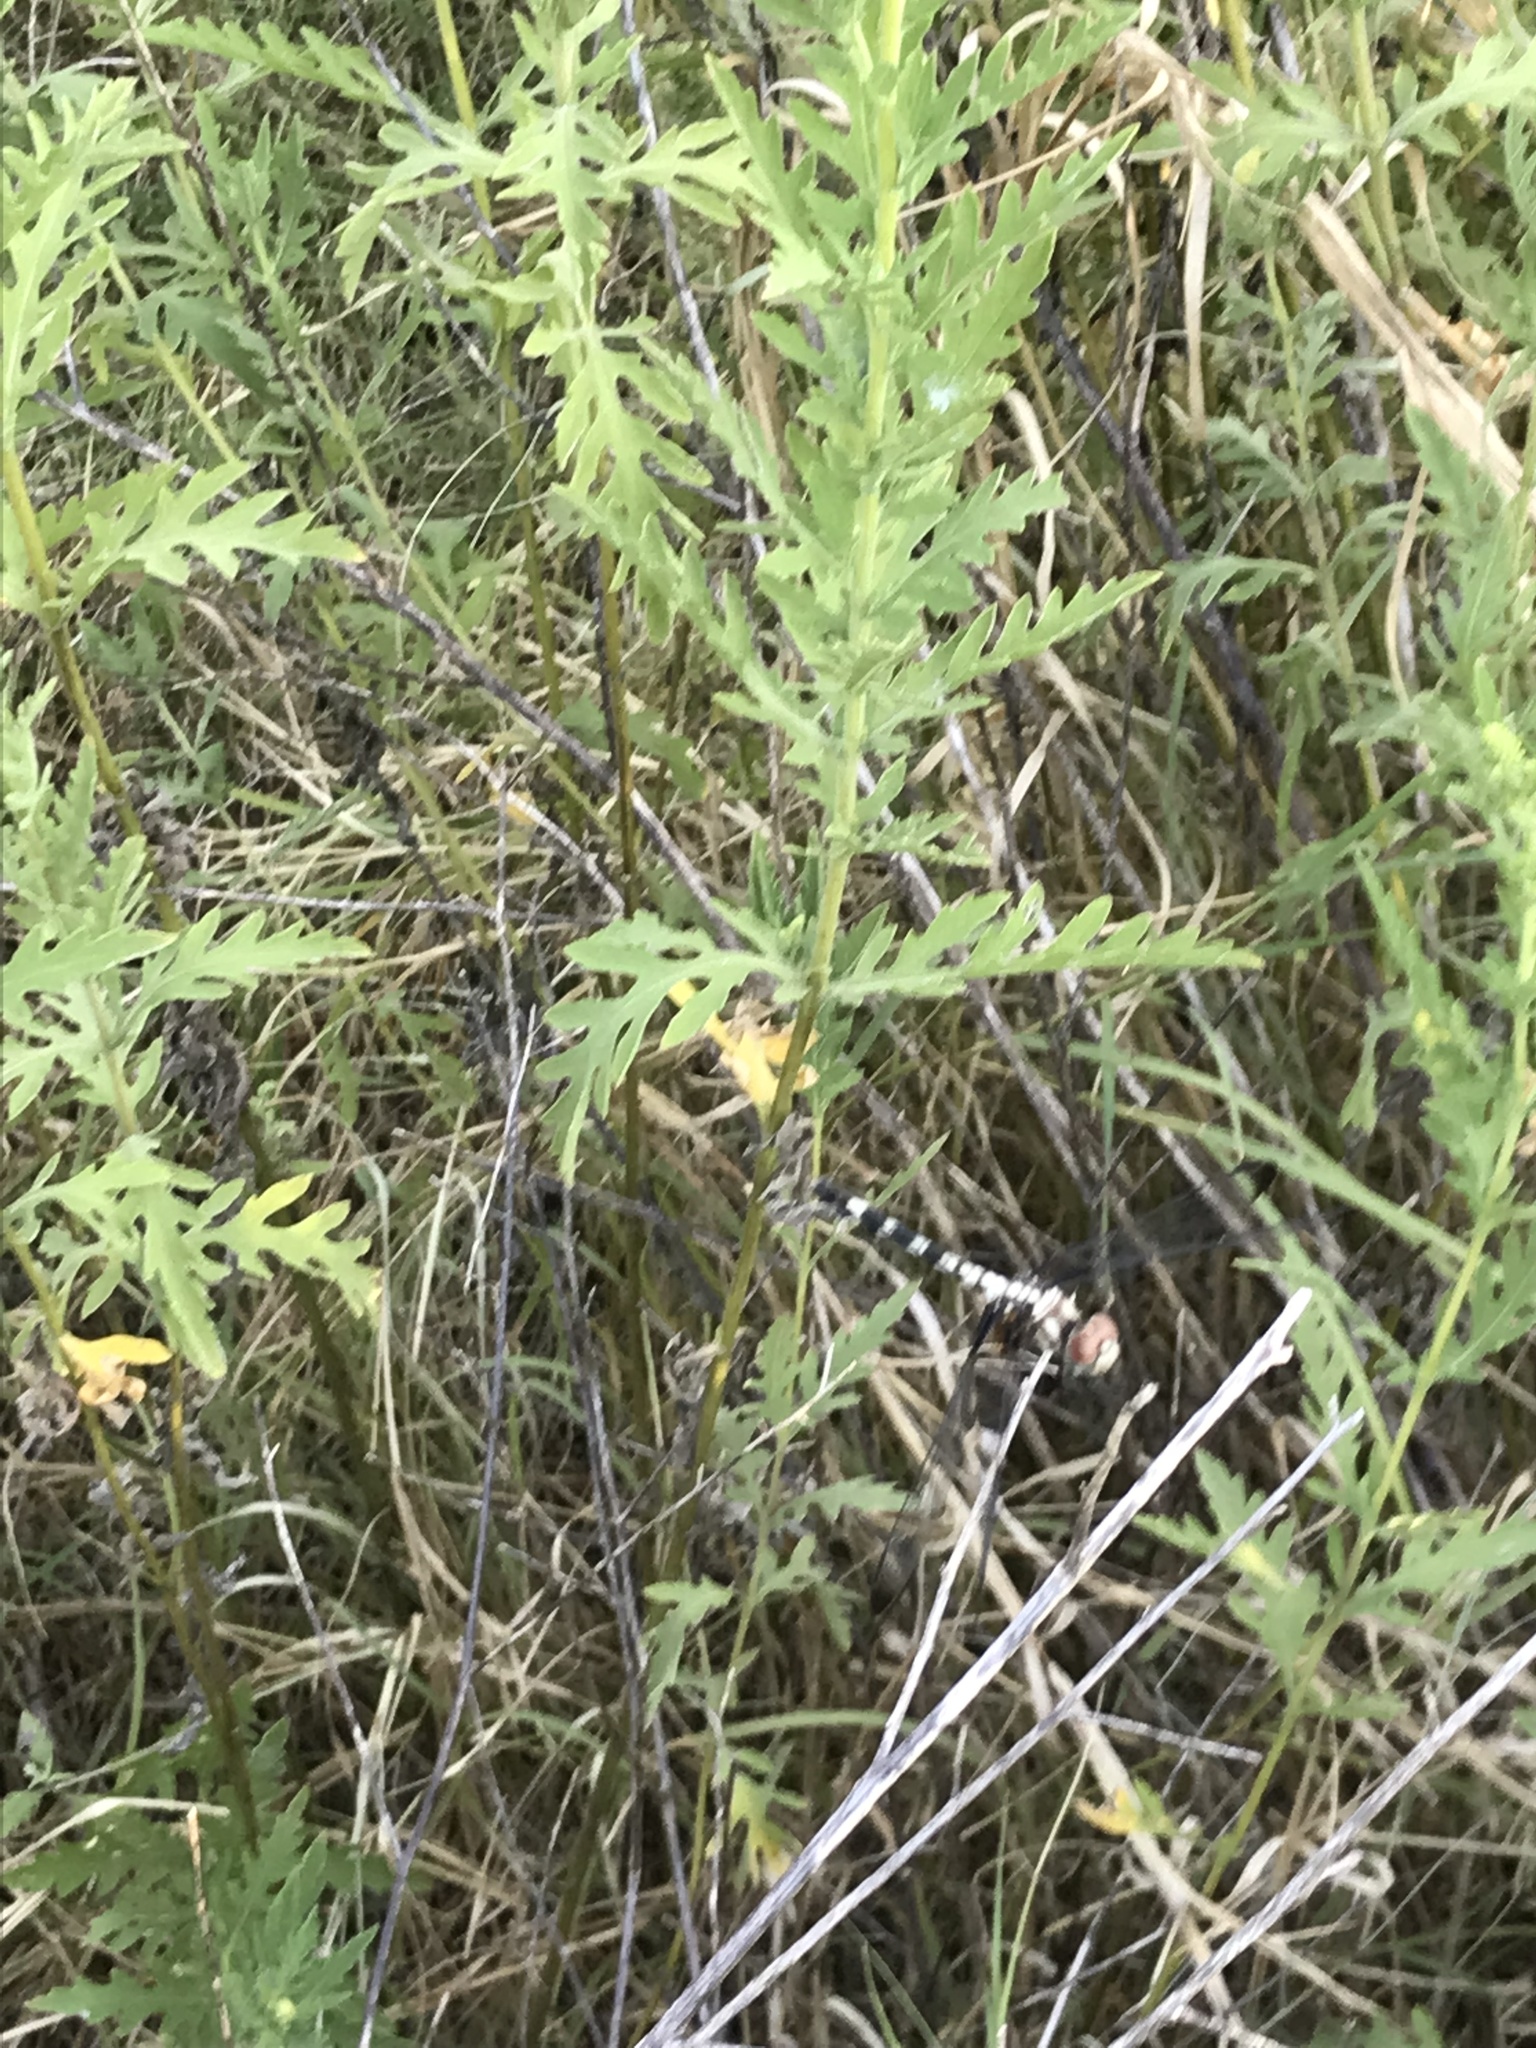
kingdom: Animalia
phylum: Arthropoda
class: Insecta
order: Odonata
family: Libellulidae
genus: Dythemis
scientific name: Dythemis fugax
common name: Checkered setwing
